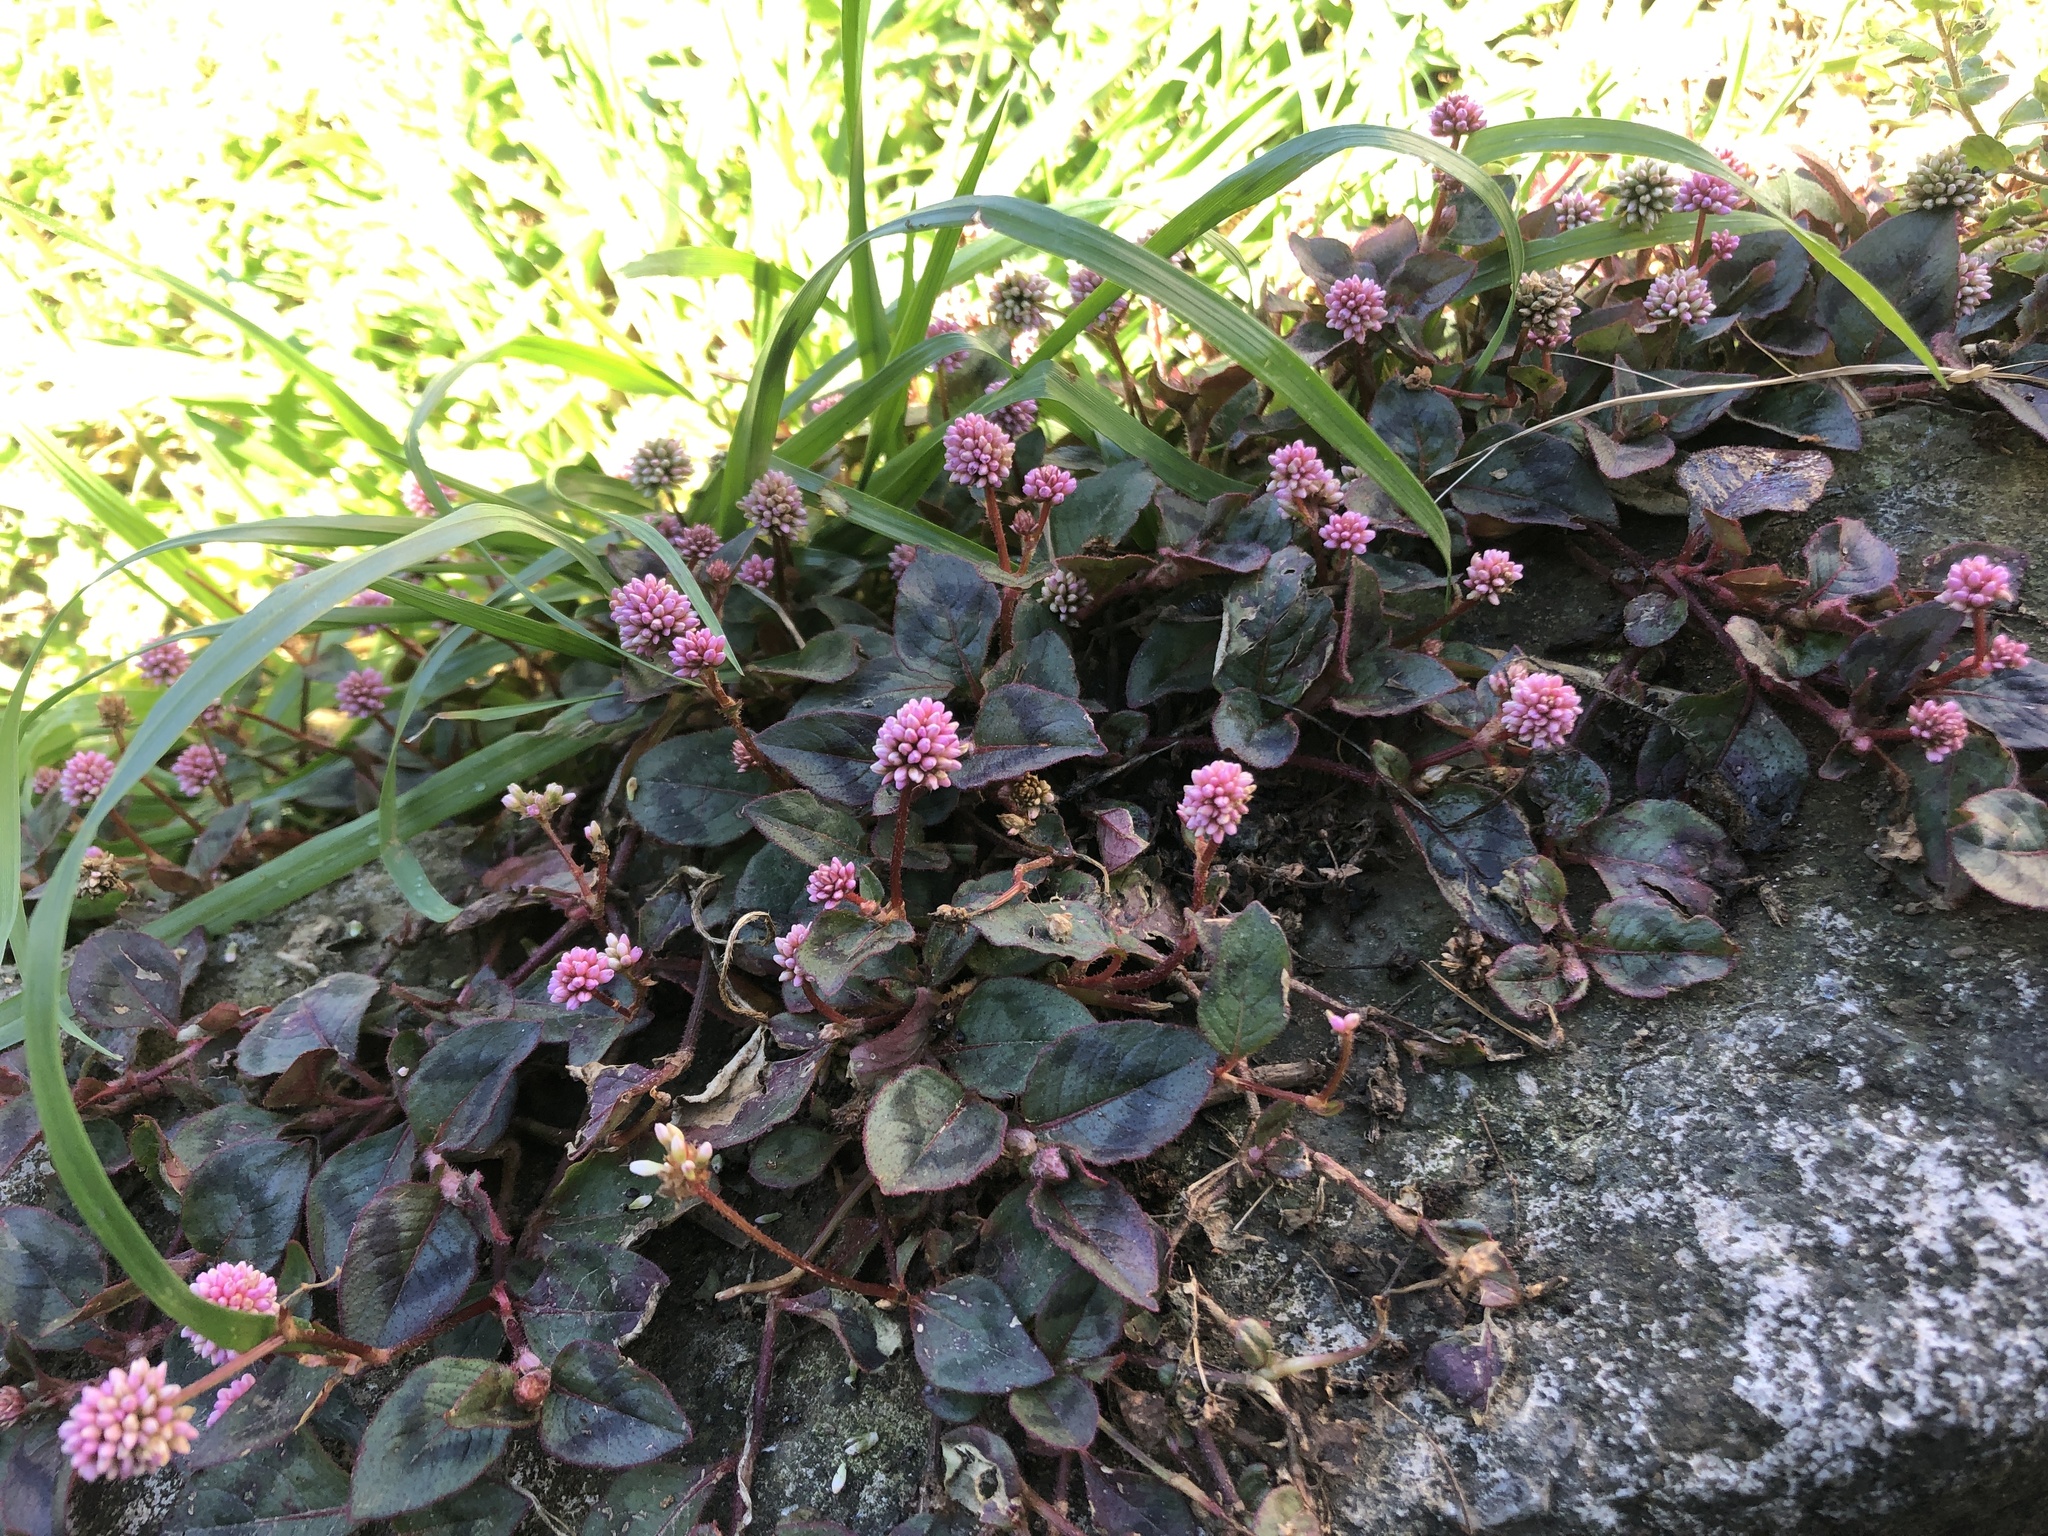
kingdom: Plantae
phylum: Tracheophyta
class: Magnoliopsida
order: Caryophyllales
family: Polygonaceae
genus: Persicaria
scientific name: Persicaria capitata
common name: Pinkhead smartweed
